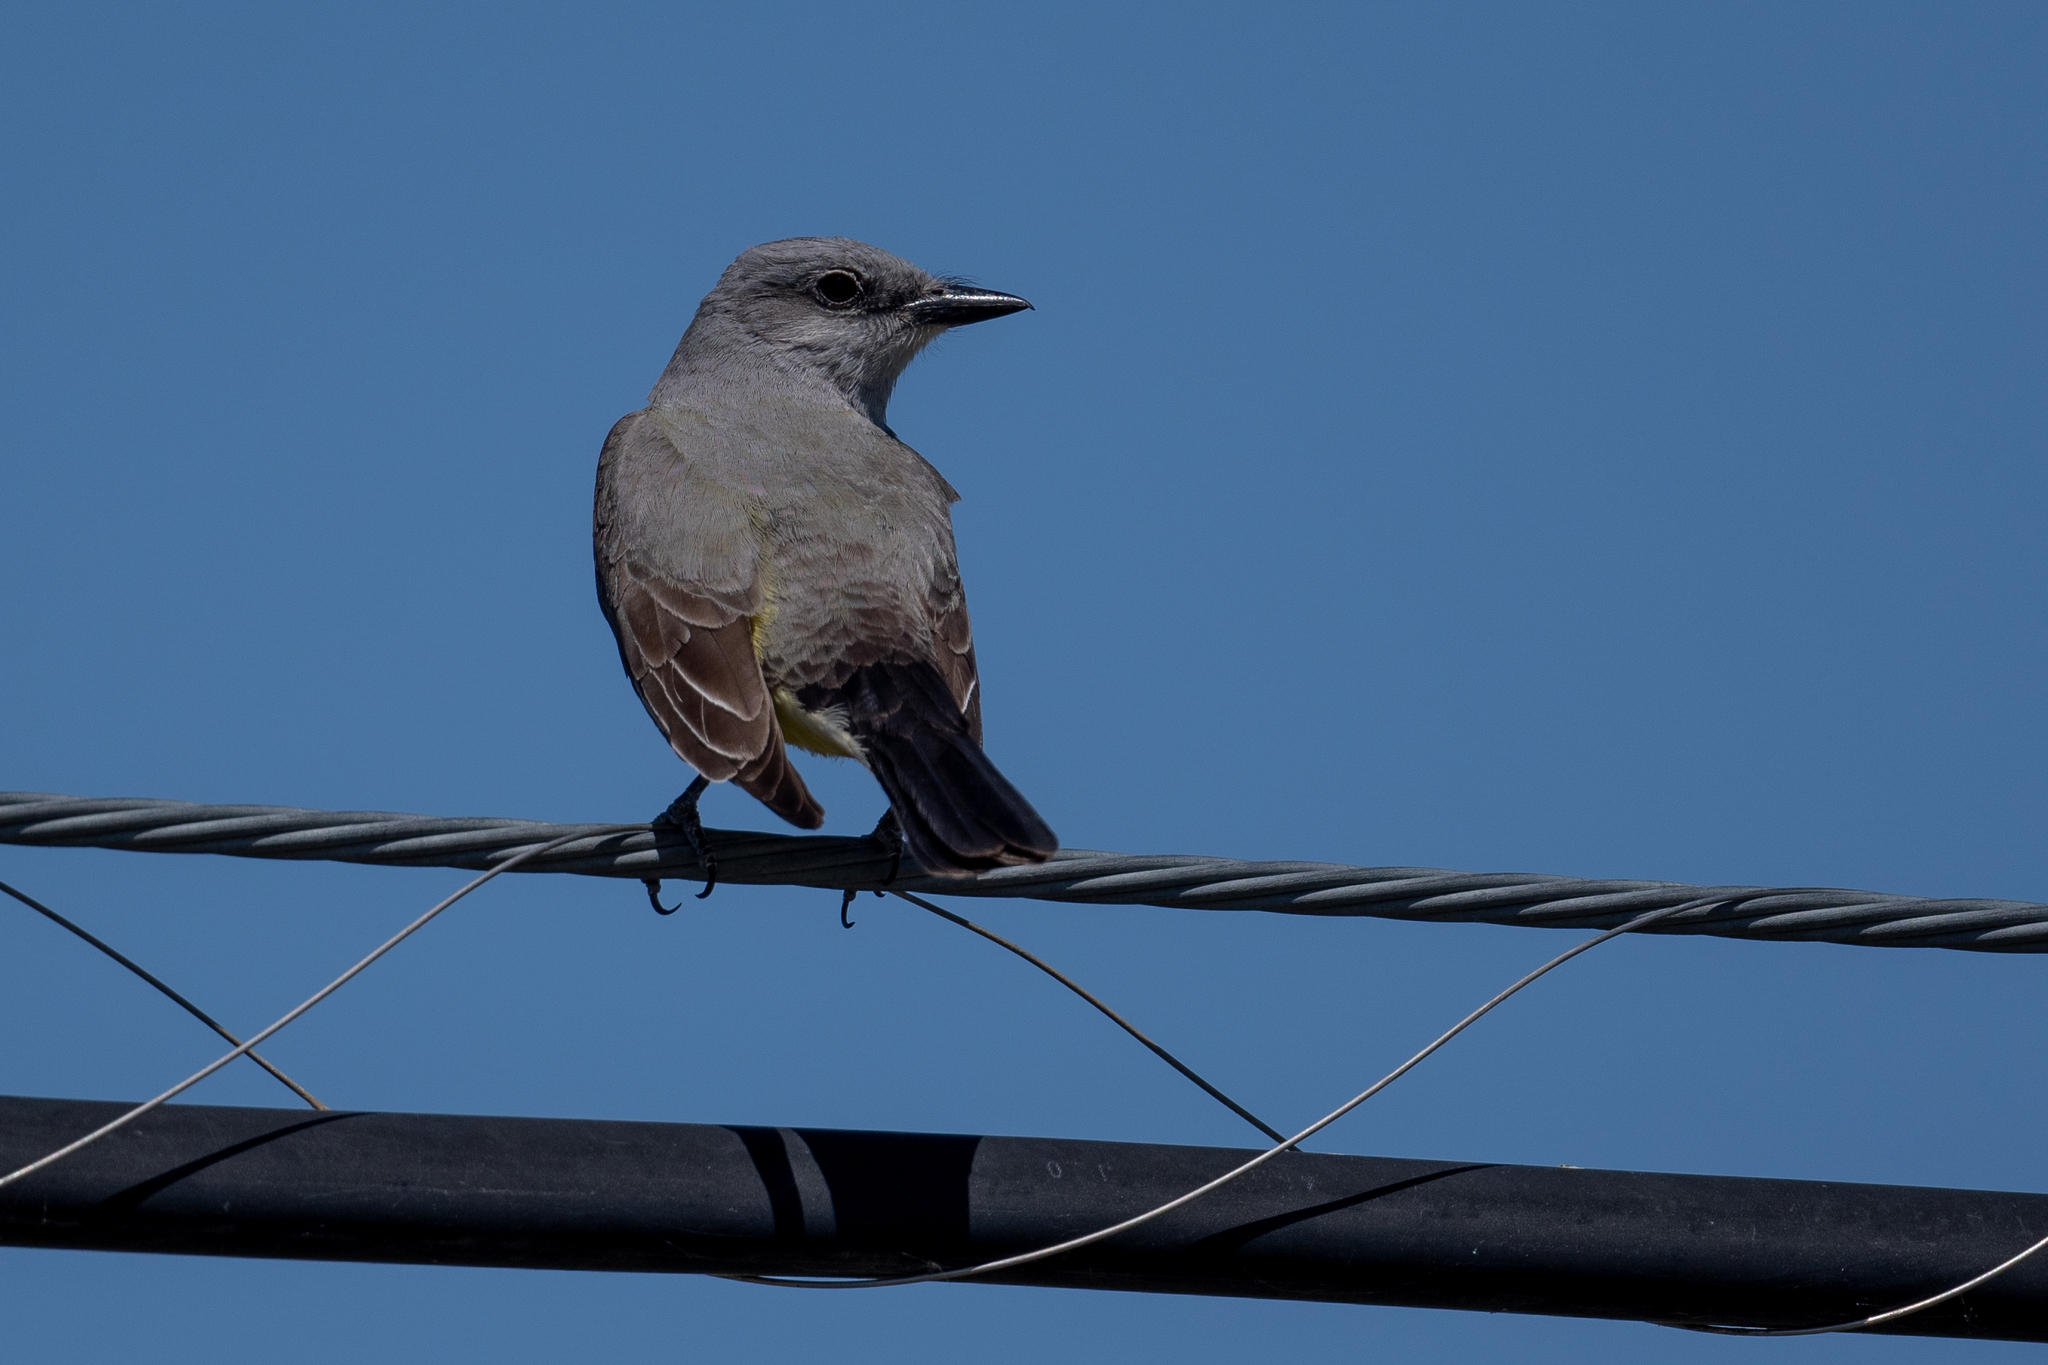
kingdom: Animalia
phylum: Chordata
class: Aves
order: Passeriformes
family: Tyrannidae
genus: Tyrannus
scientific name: Tyrannus verticalis
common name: Western kingbird
